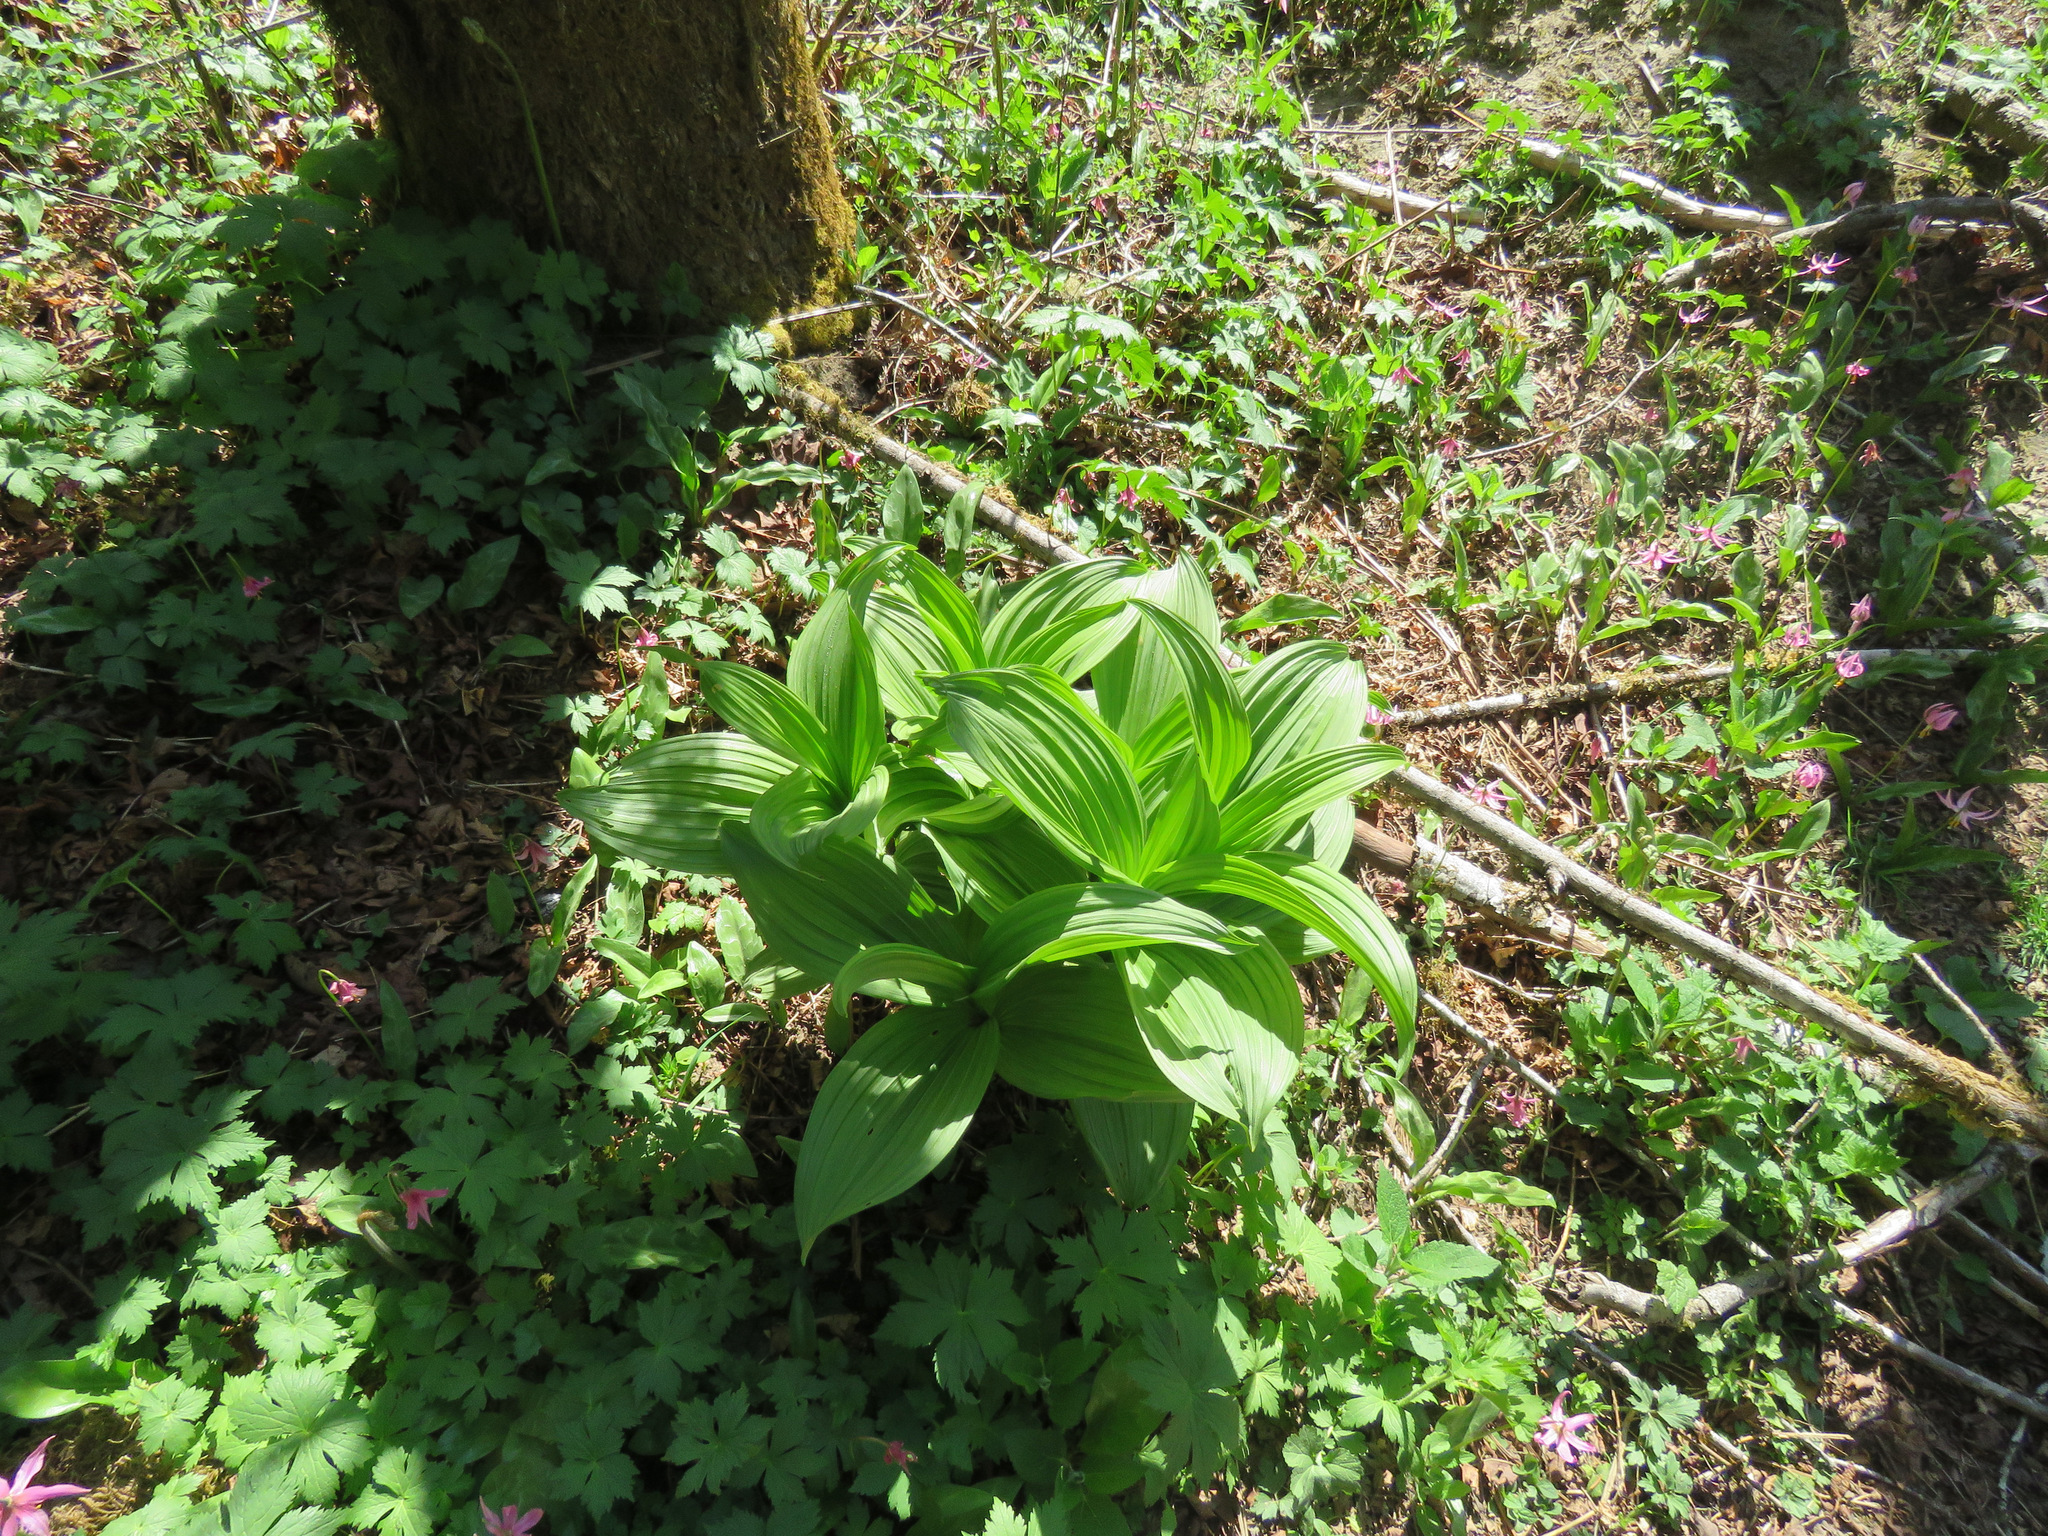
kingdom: Plantae
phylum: Tracheophyta
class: Liliopsida
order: Liliales
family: Melanthiaceae
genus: Veratrum
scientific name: Veratrum viride
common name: American false hellebore
